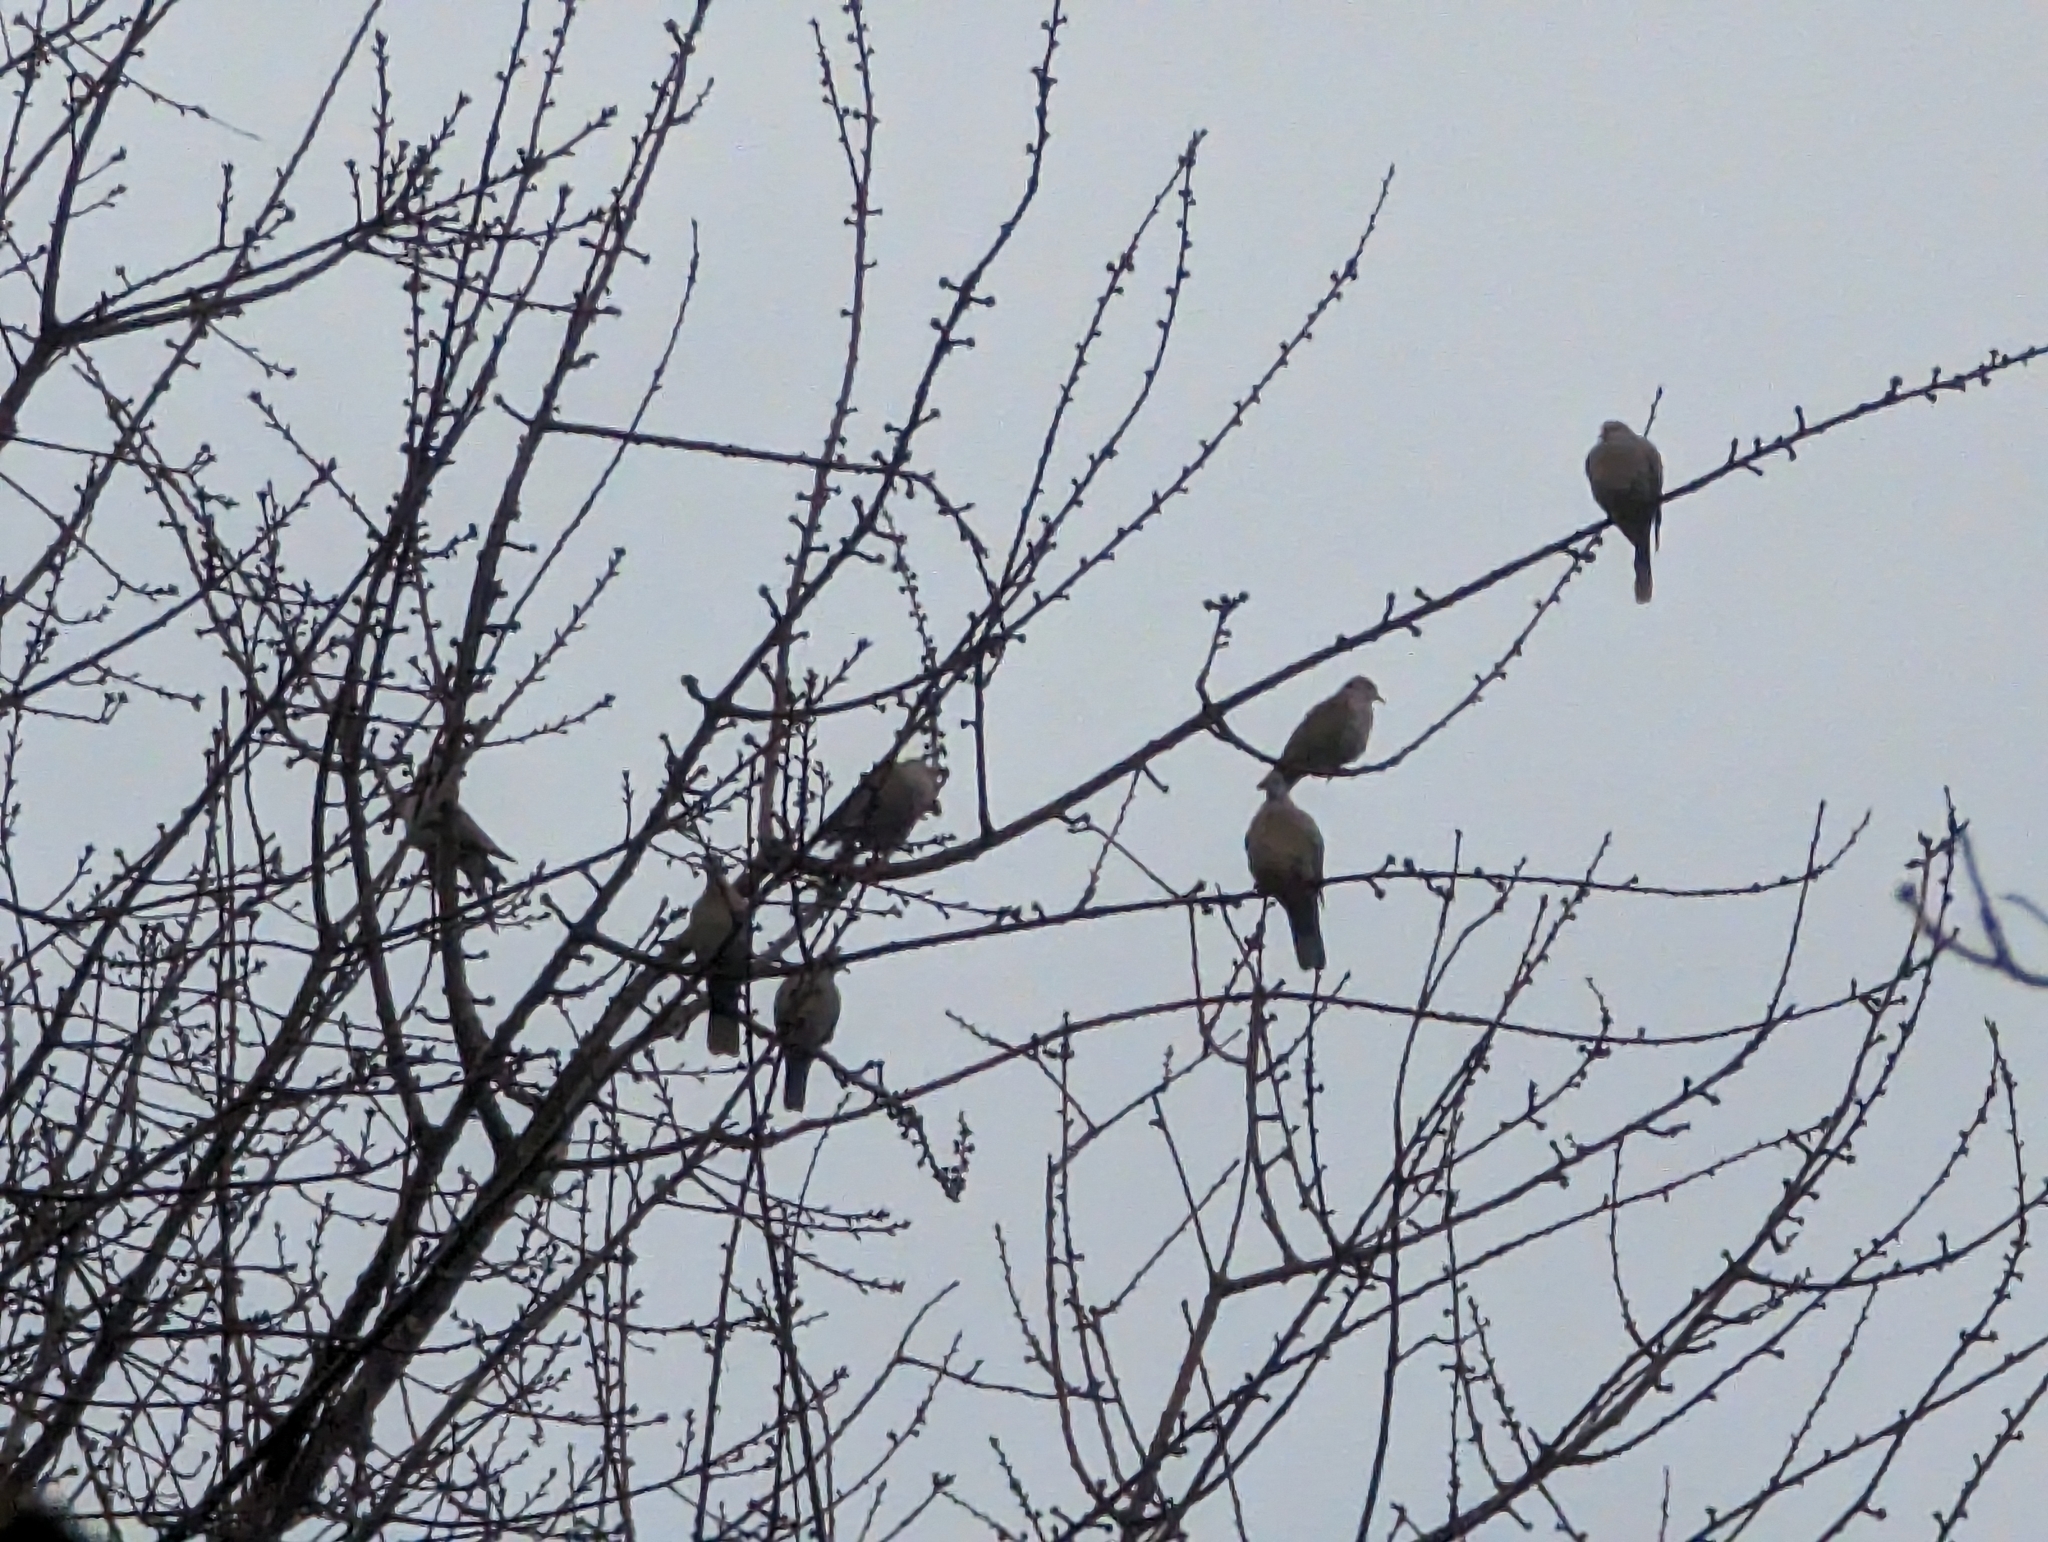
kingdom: Animalia
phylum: Chordata
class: Aves
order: Columbiformes
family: Columbidae
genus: Streptopelia
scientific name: Streptopelia decaocto
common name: Eurasian collared dove
